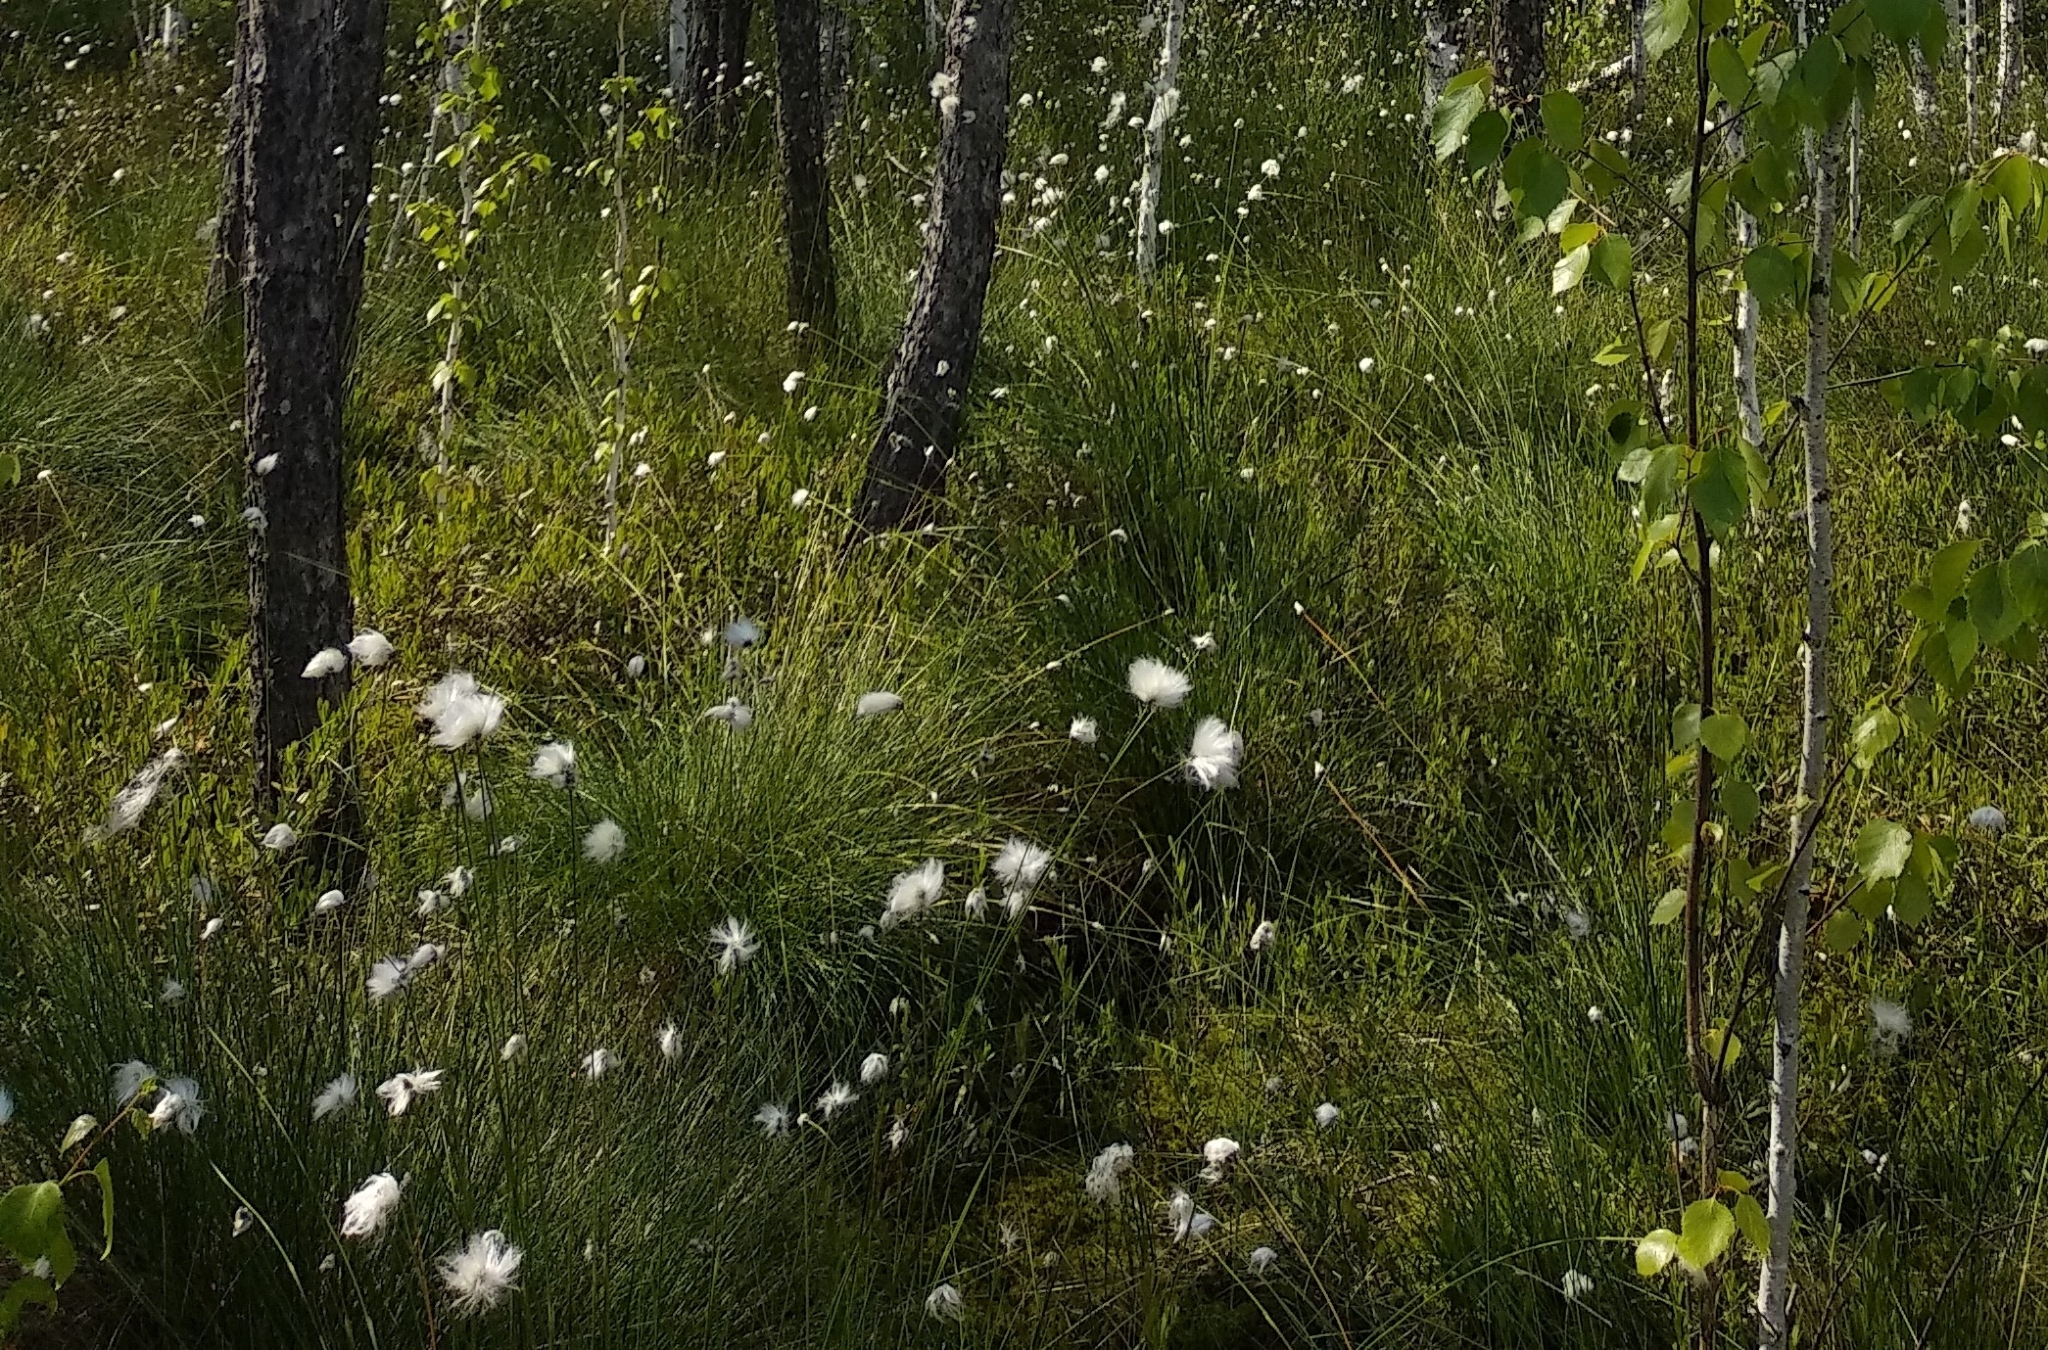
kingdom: Plantae
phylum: Tracheophyta
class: Liliopsida
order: Poales
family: Cyperaceae
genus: Eriophorum
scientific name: Eriophorum vaginatum
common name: Hare's-tail cottongrass
